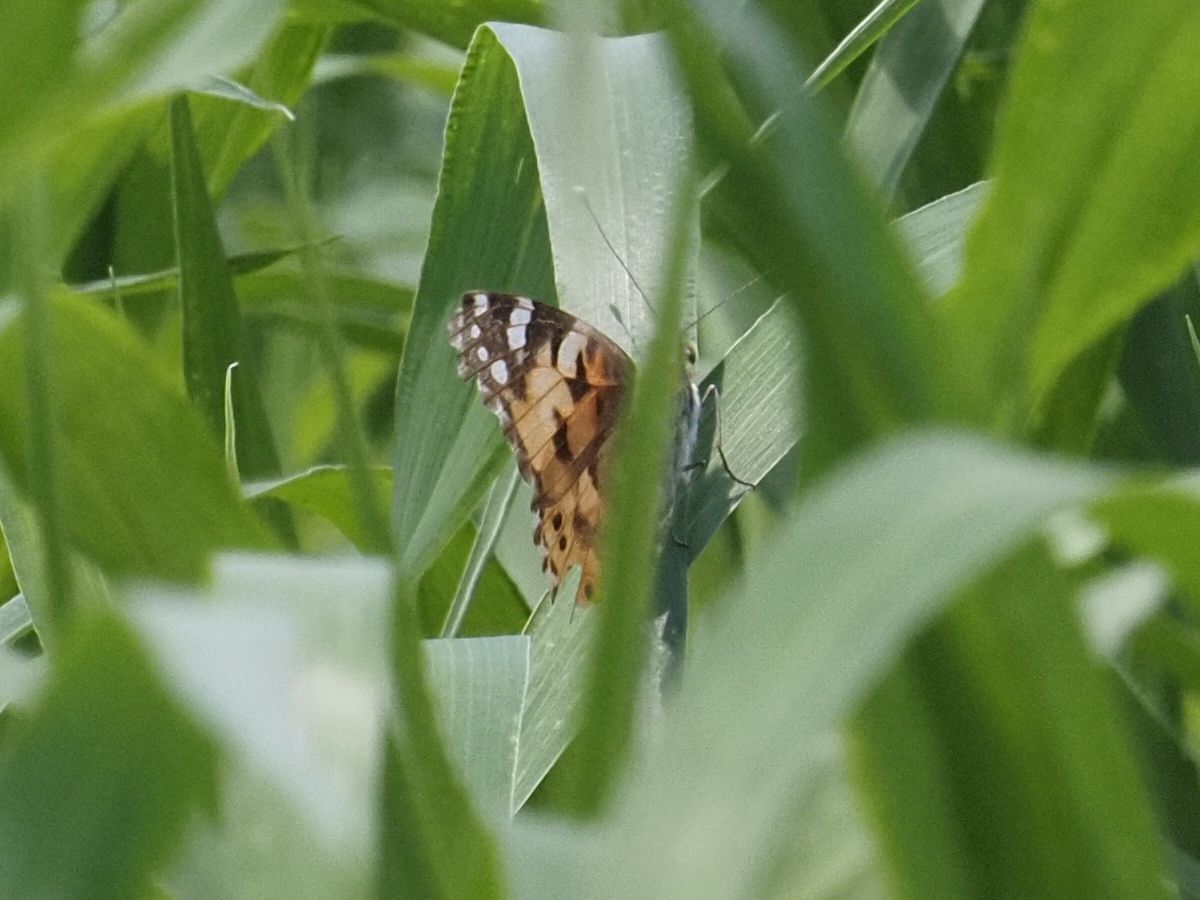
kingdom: Animalia
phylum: Arthropoda
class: Insecta
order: Lepidoptera
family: Nymphalidae
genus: Vanessa
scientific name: Vanessa cardui
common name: Painted lady
